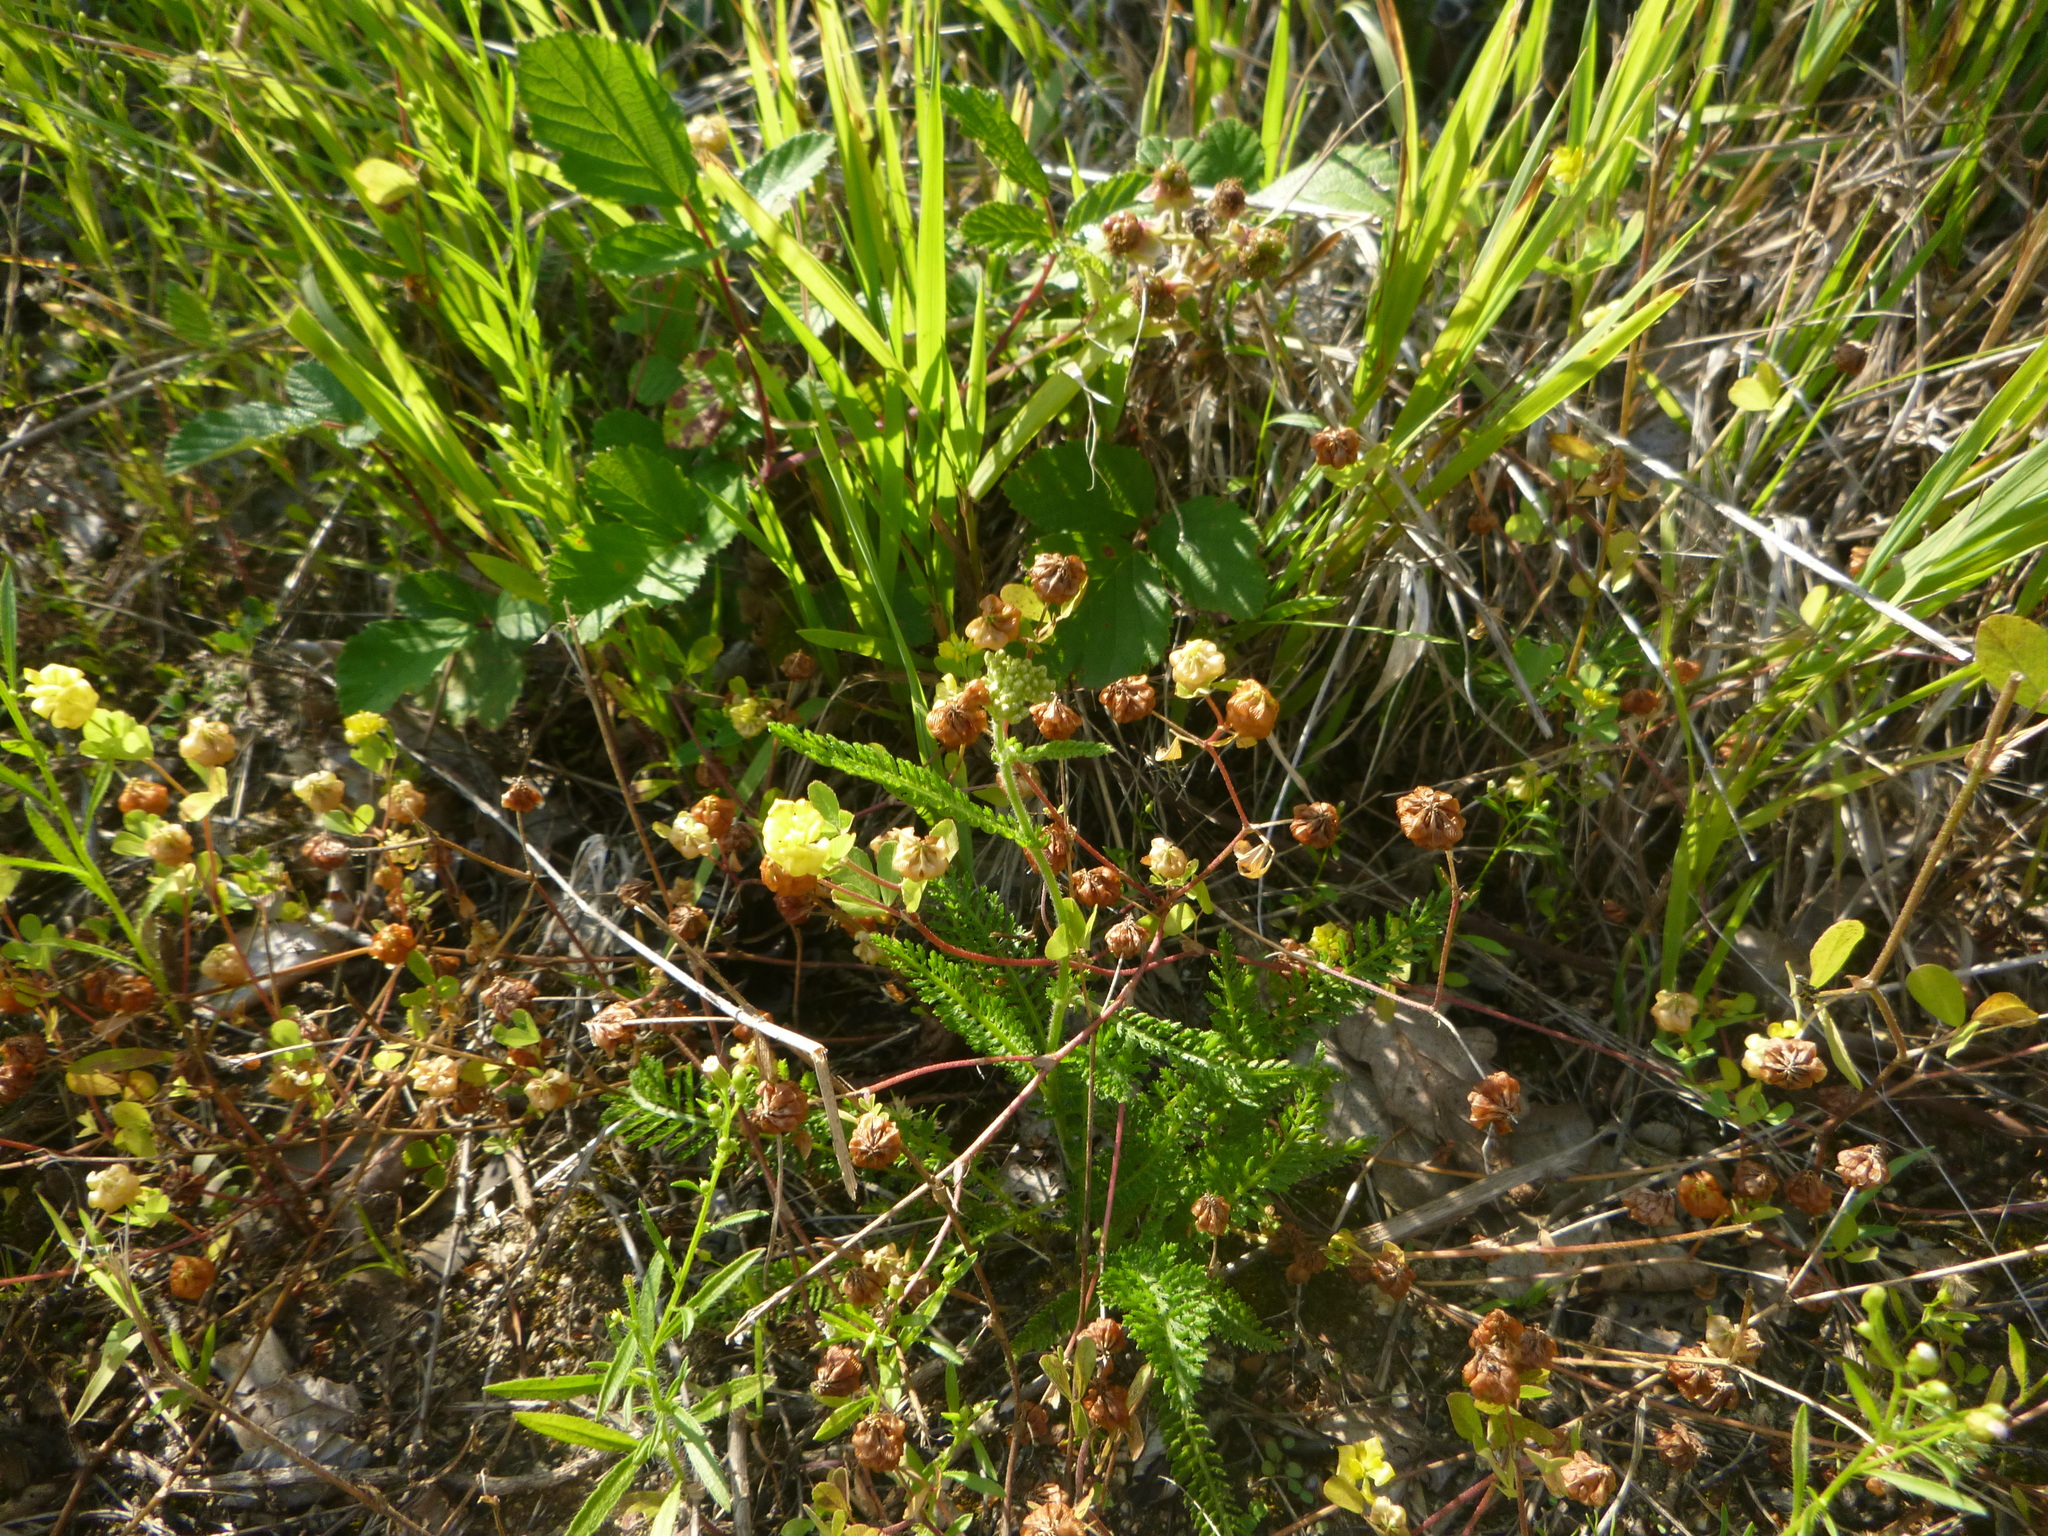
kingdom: Plantae
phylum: Tracheophyta
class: Magnoliopsida
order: Fabales
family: Fabaceae
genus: Trifolium
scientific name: Trifolium campestre
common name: Field clover
